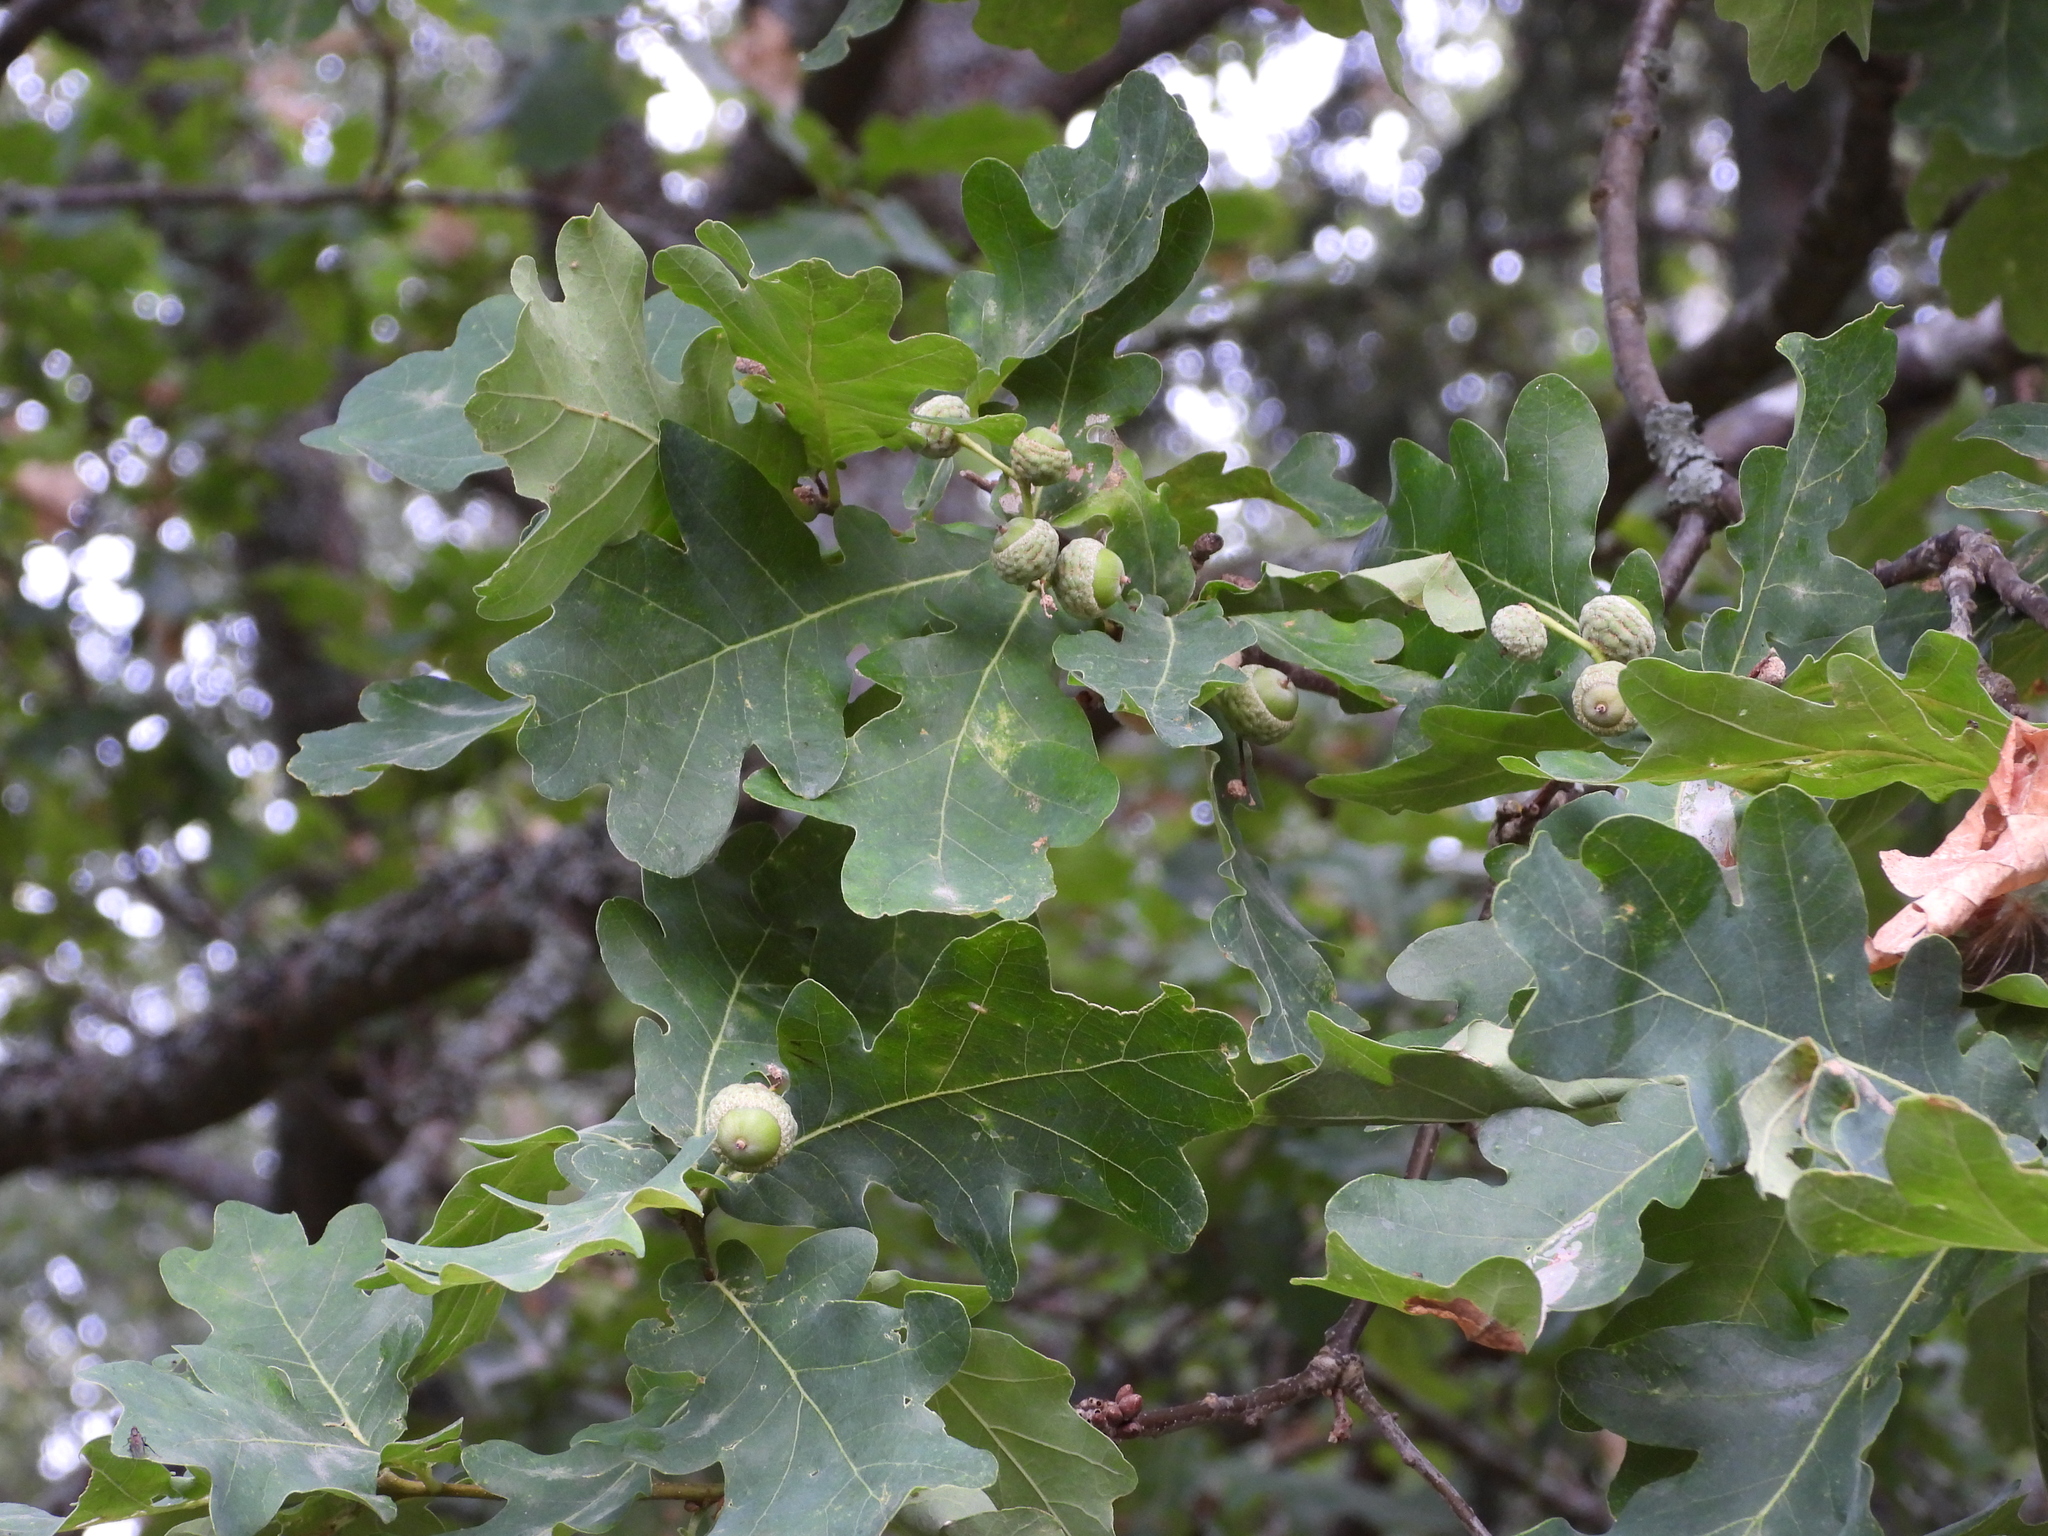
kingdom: Plantae
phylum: Tracheophyta
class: Magnoliopsida
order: Fagales
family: Fagaceae
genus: Quercus
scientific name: Quercus robur
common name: Pedunculate oak
